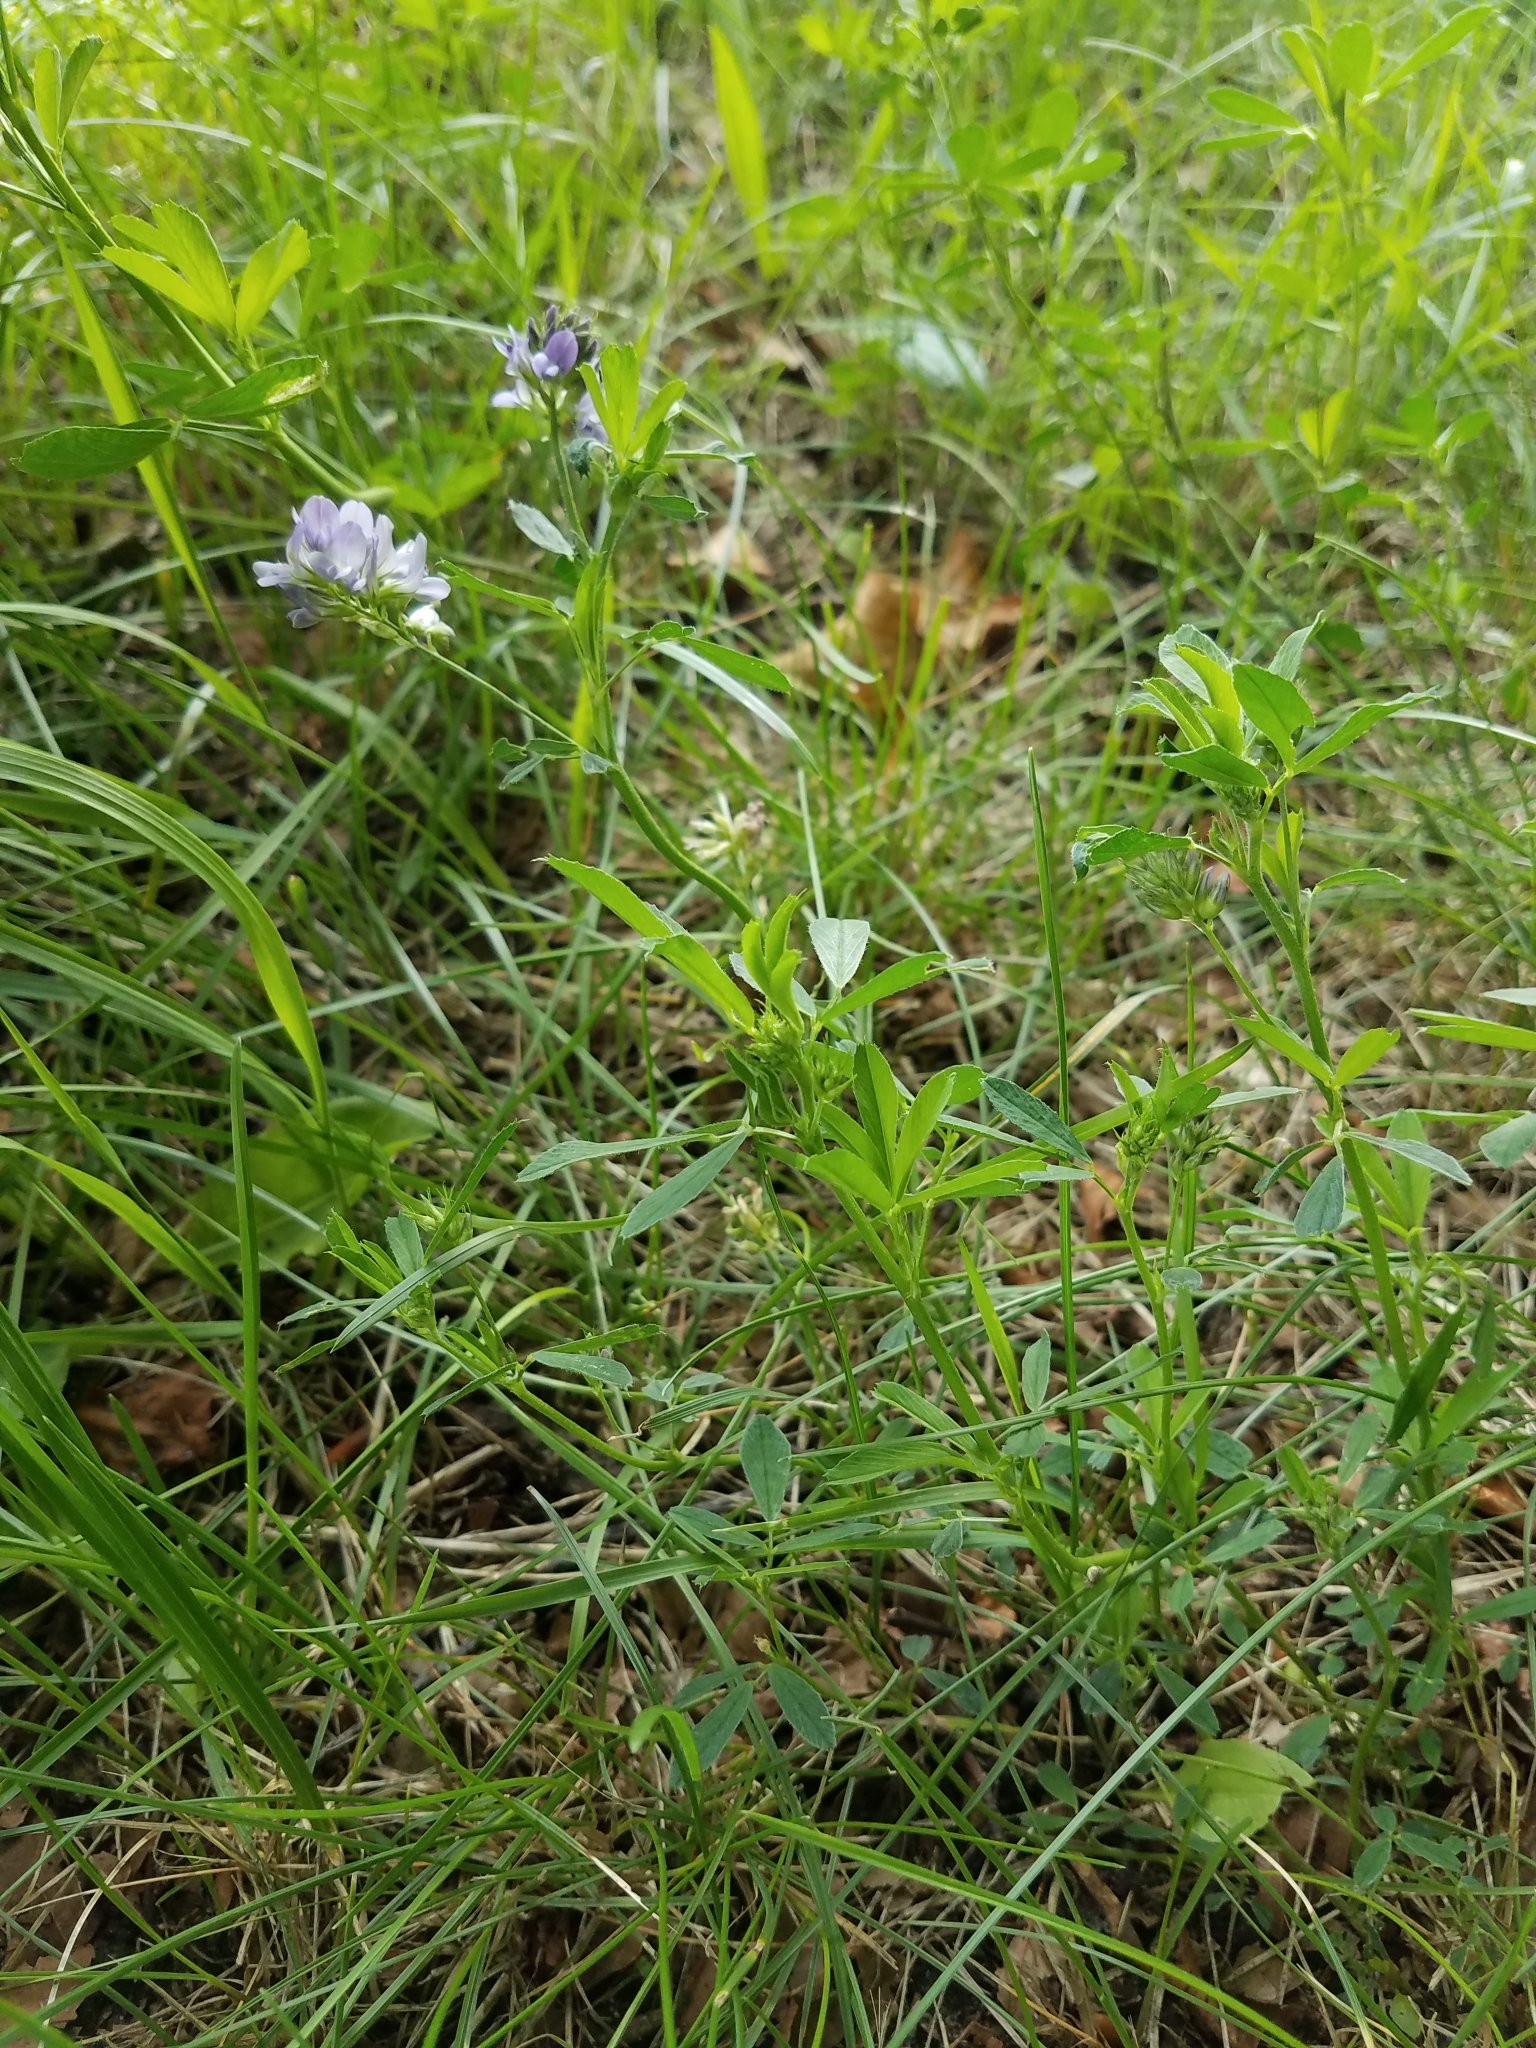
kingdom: Plantae
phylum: Tracheophyta
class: Magnoliopsida
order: Fabales
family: Fabaceae
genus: Medicago
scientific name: Medicago sativa
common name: Alfalfa
